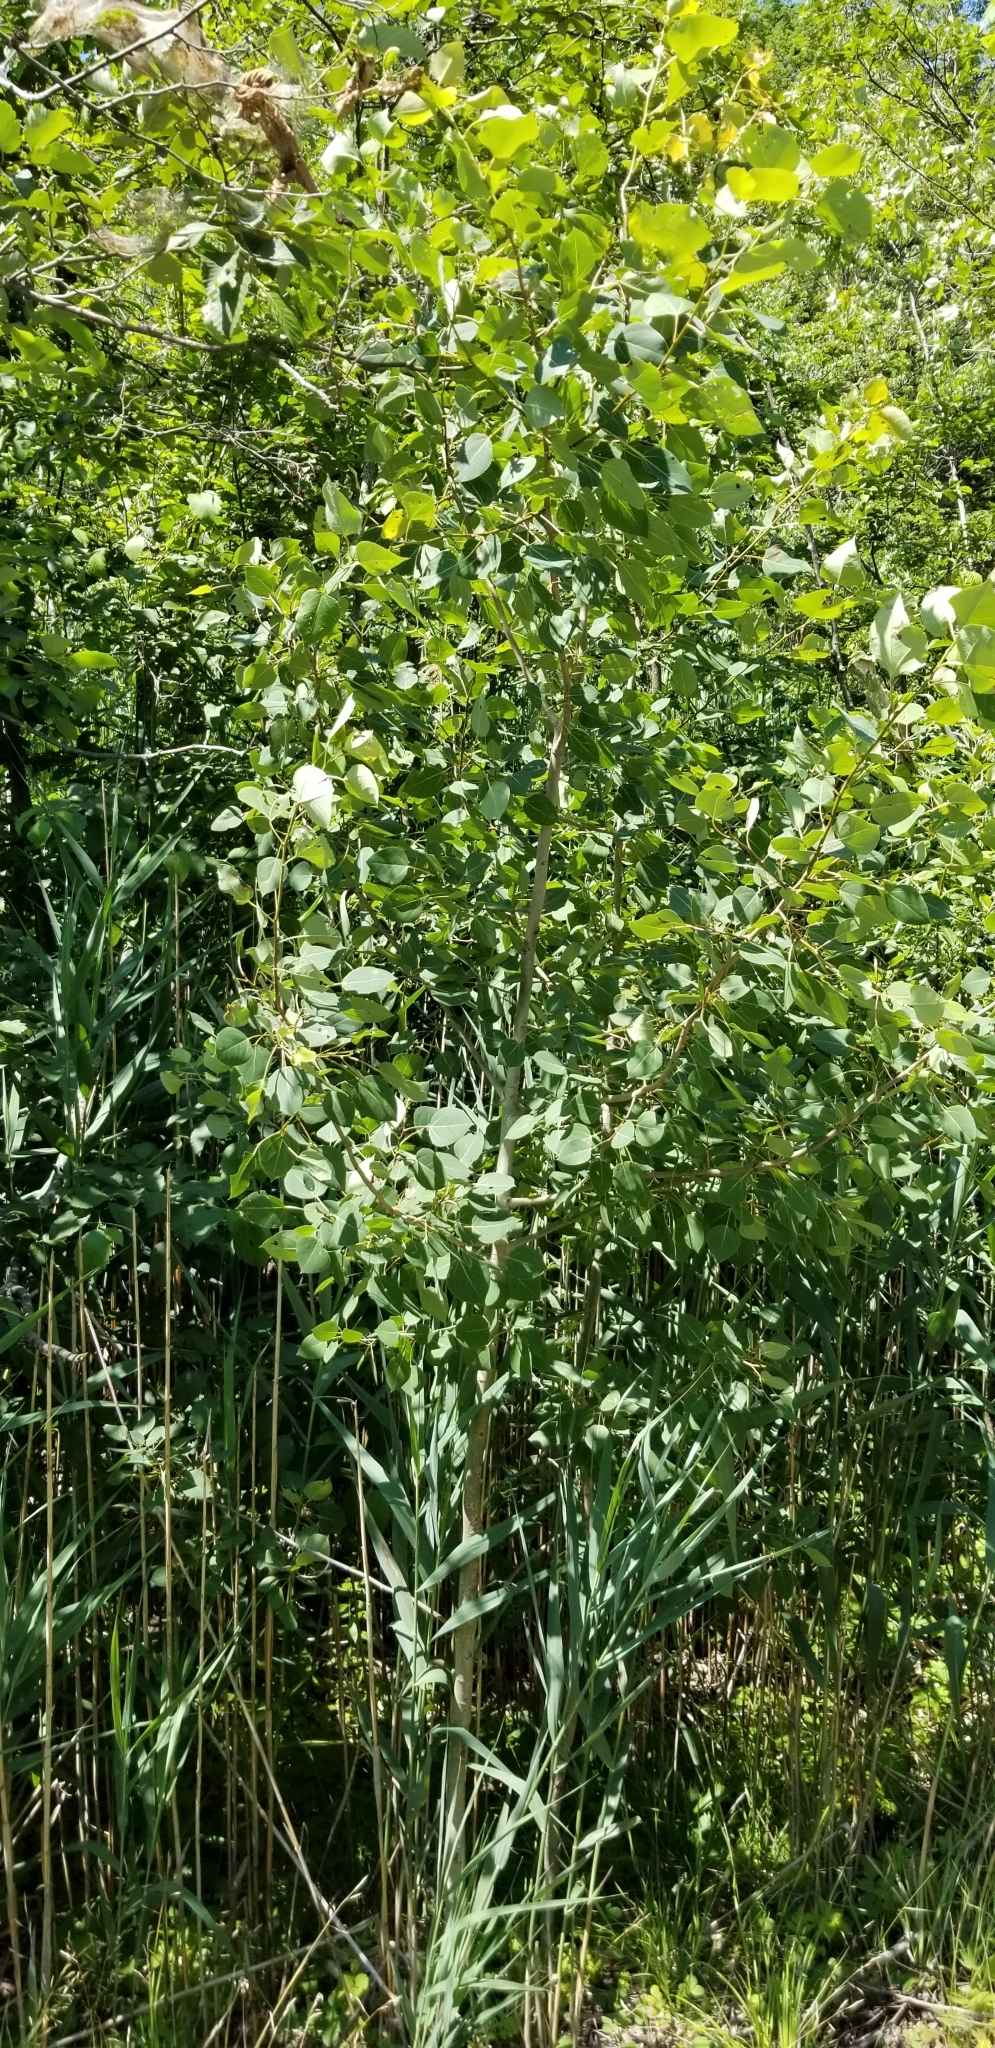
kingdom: Plantae
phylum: Tracheophyta
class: Magnoliopsida
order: Malpighiales
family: Salicaceae
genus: Populus
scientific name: Populus tremuloides
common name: Quaking aspen
